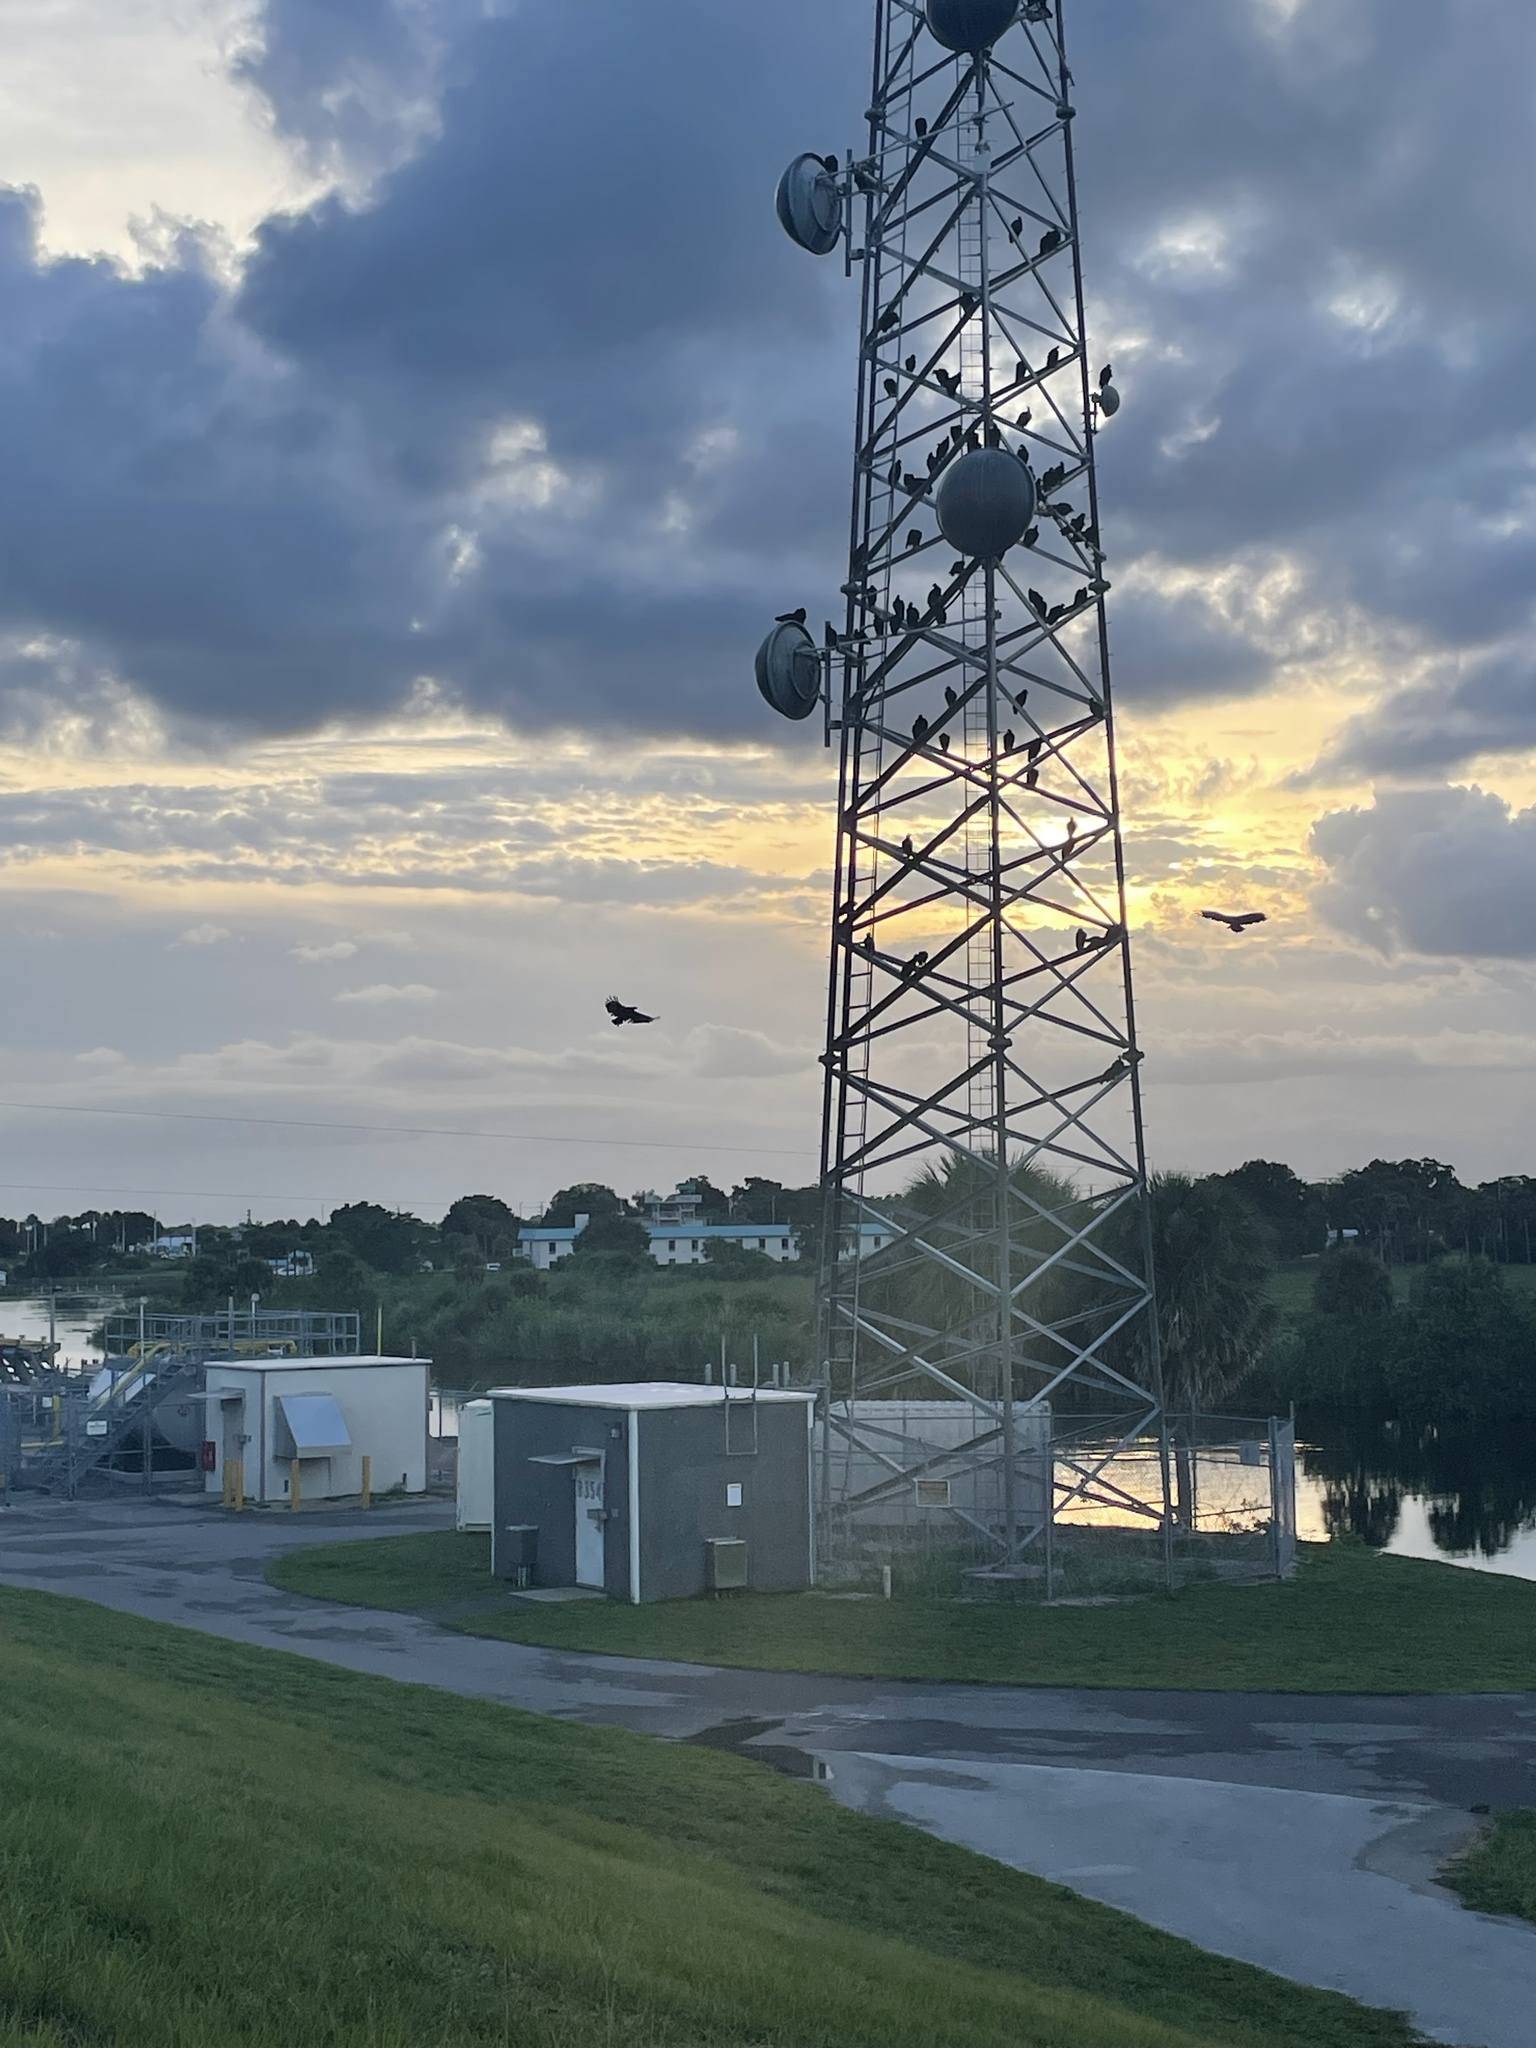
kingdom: Animalia
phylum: Chordata
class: Aves
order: Accipitriformes
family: Cathartidae
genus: Coragyps
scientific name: Coragyps atratus
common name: Black vulture
